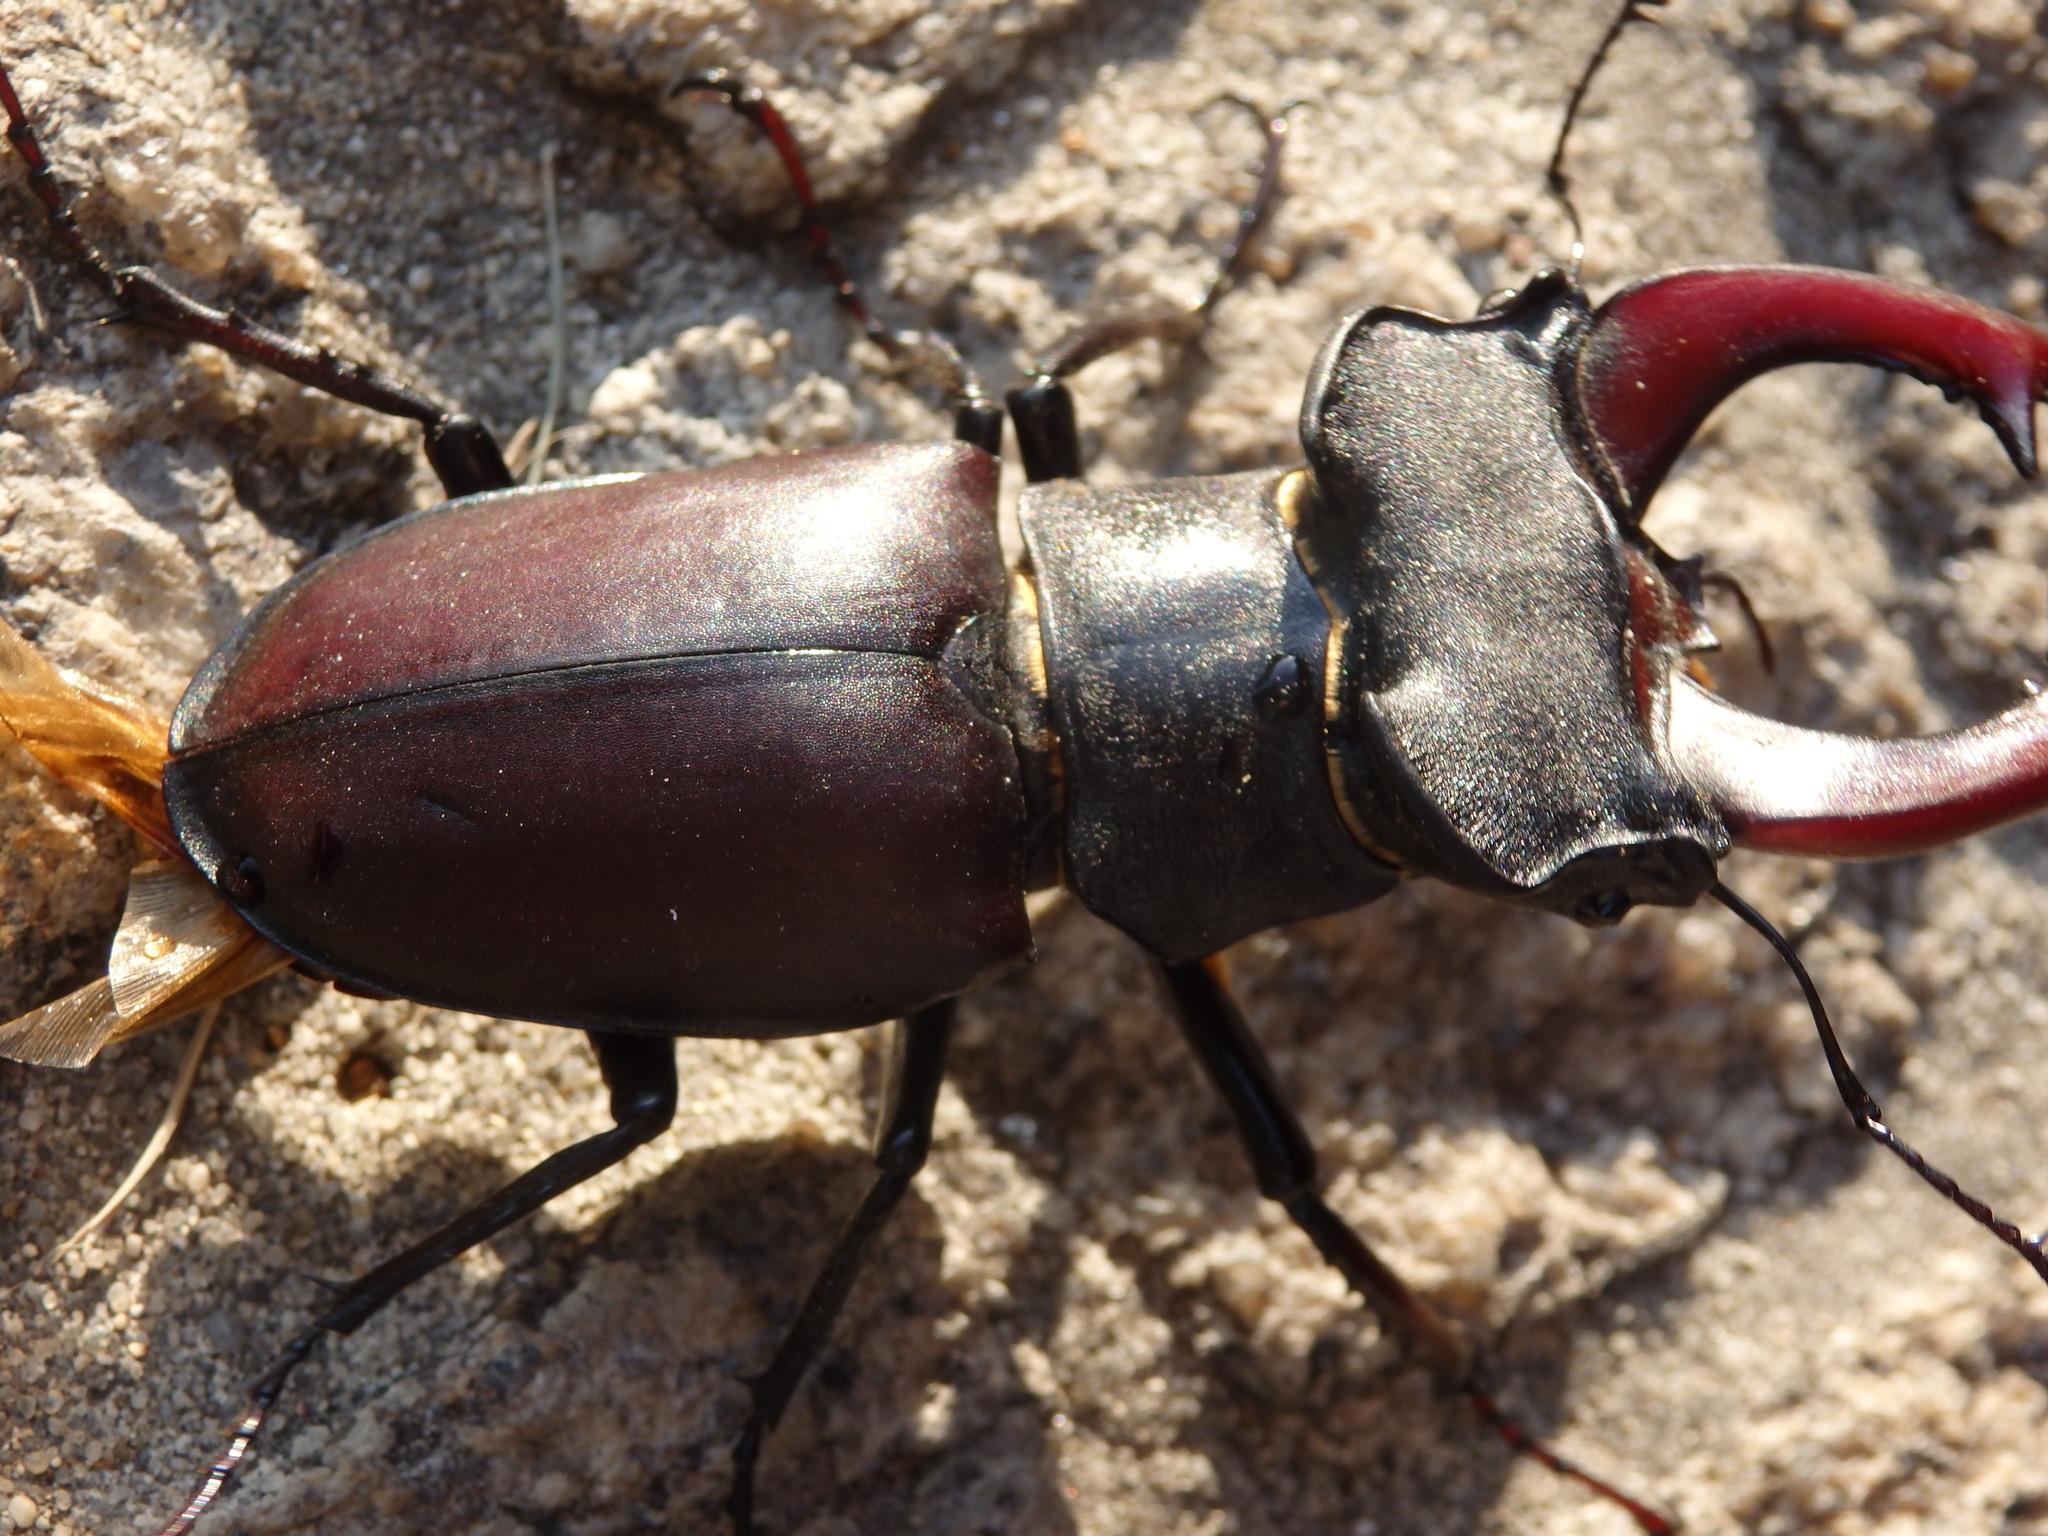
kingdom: Animalia
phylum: Arthropoda
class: Insecta
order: Coleoptera
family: Lucanidae
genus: Lucanus
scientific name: Lucanus cervus
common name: Stag beetle
